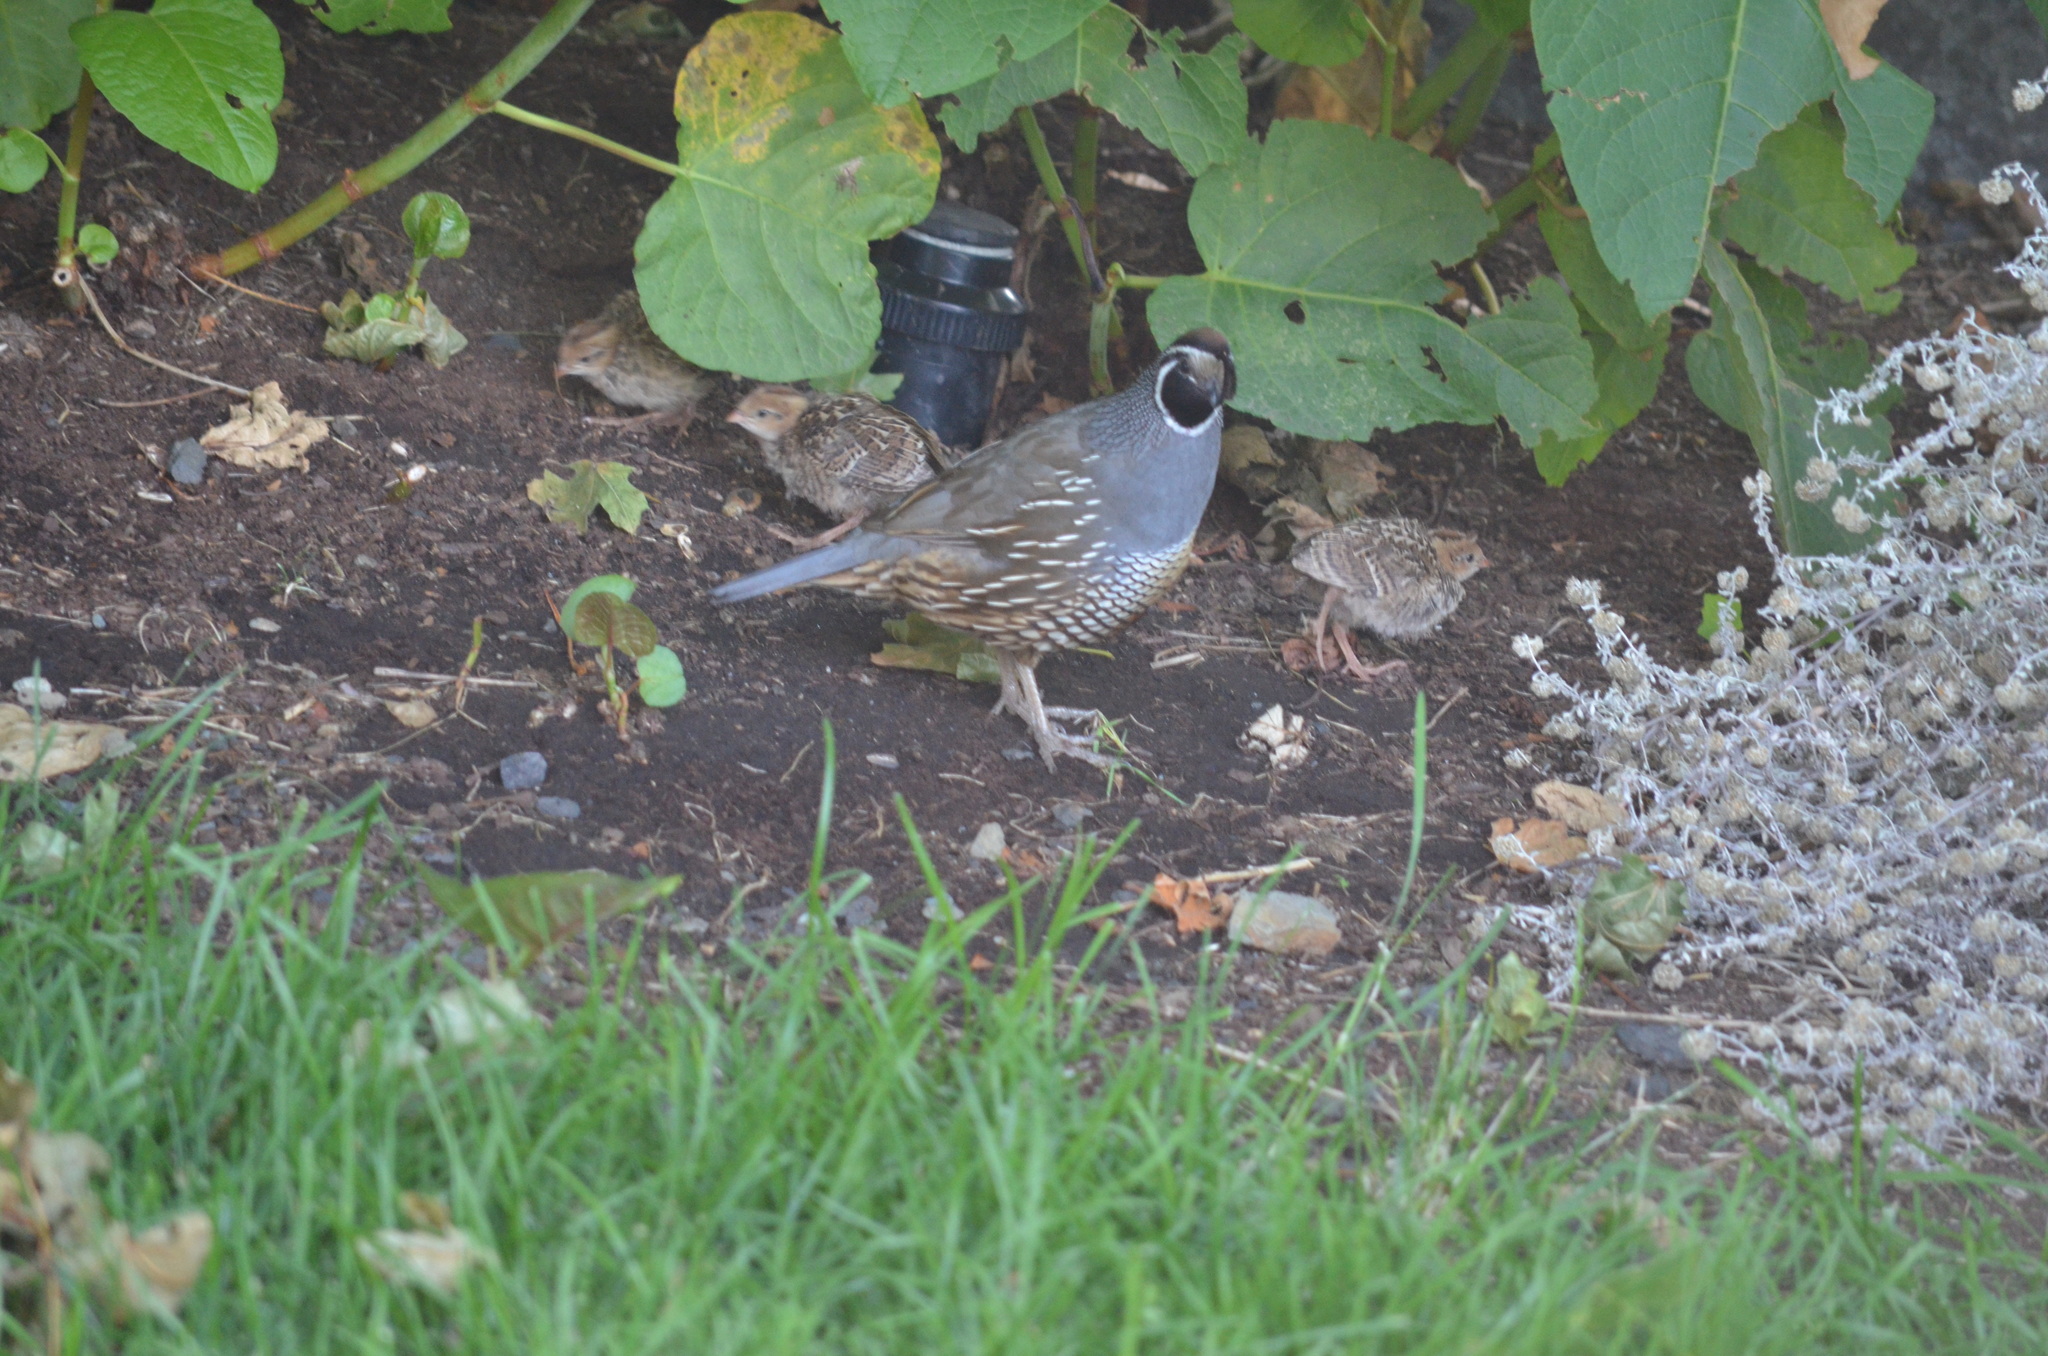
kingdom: Animalia
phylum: Chordata
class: Aves
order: Galliformes
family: Odontophoridae
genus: Callipepla
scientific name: Callipepla californica
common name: California quail
